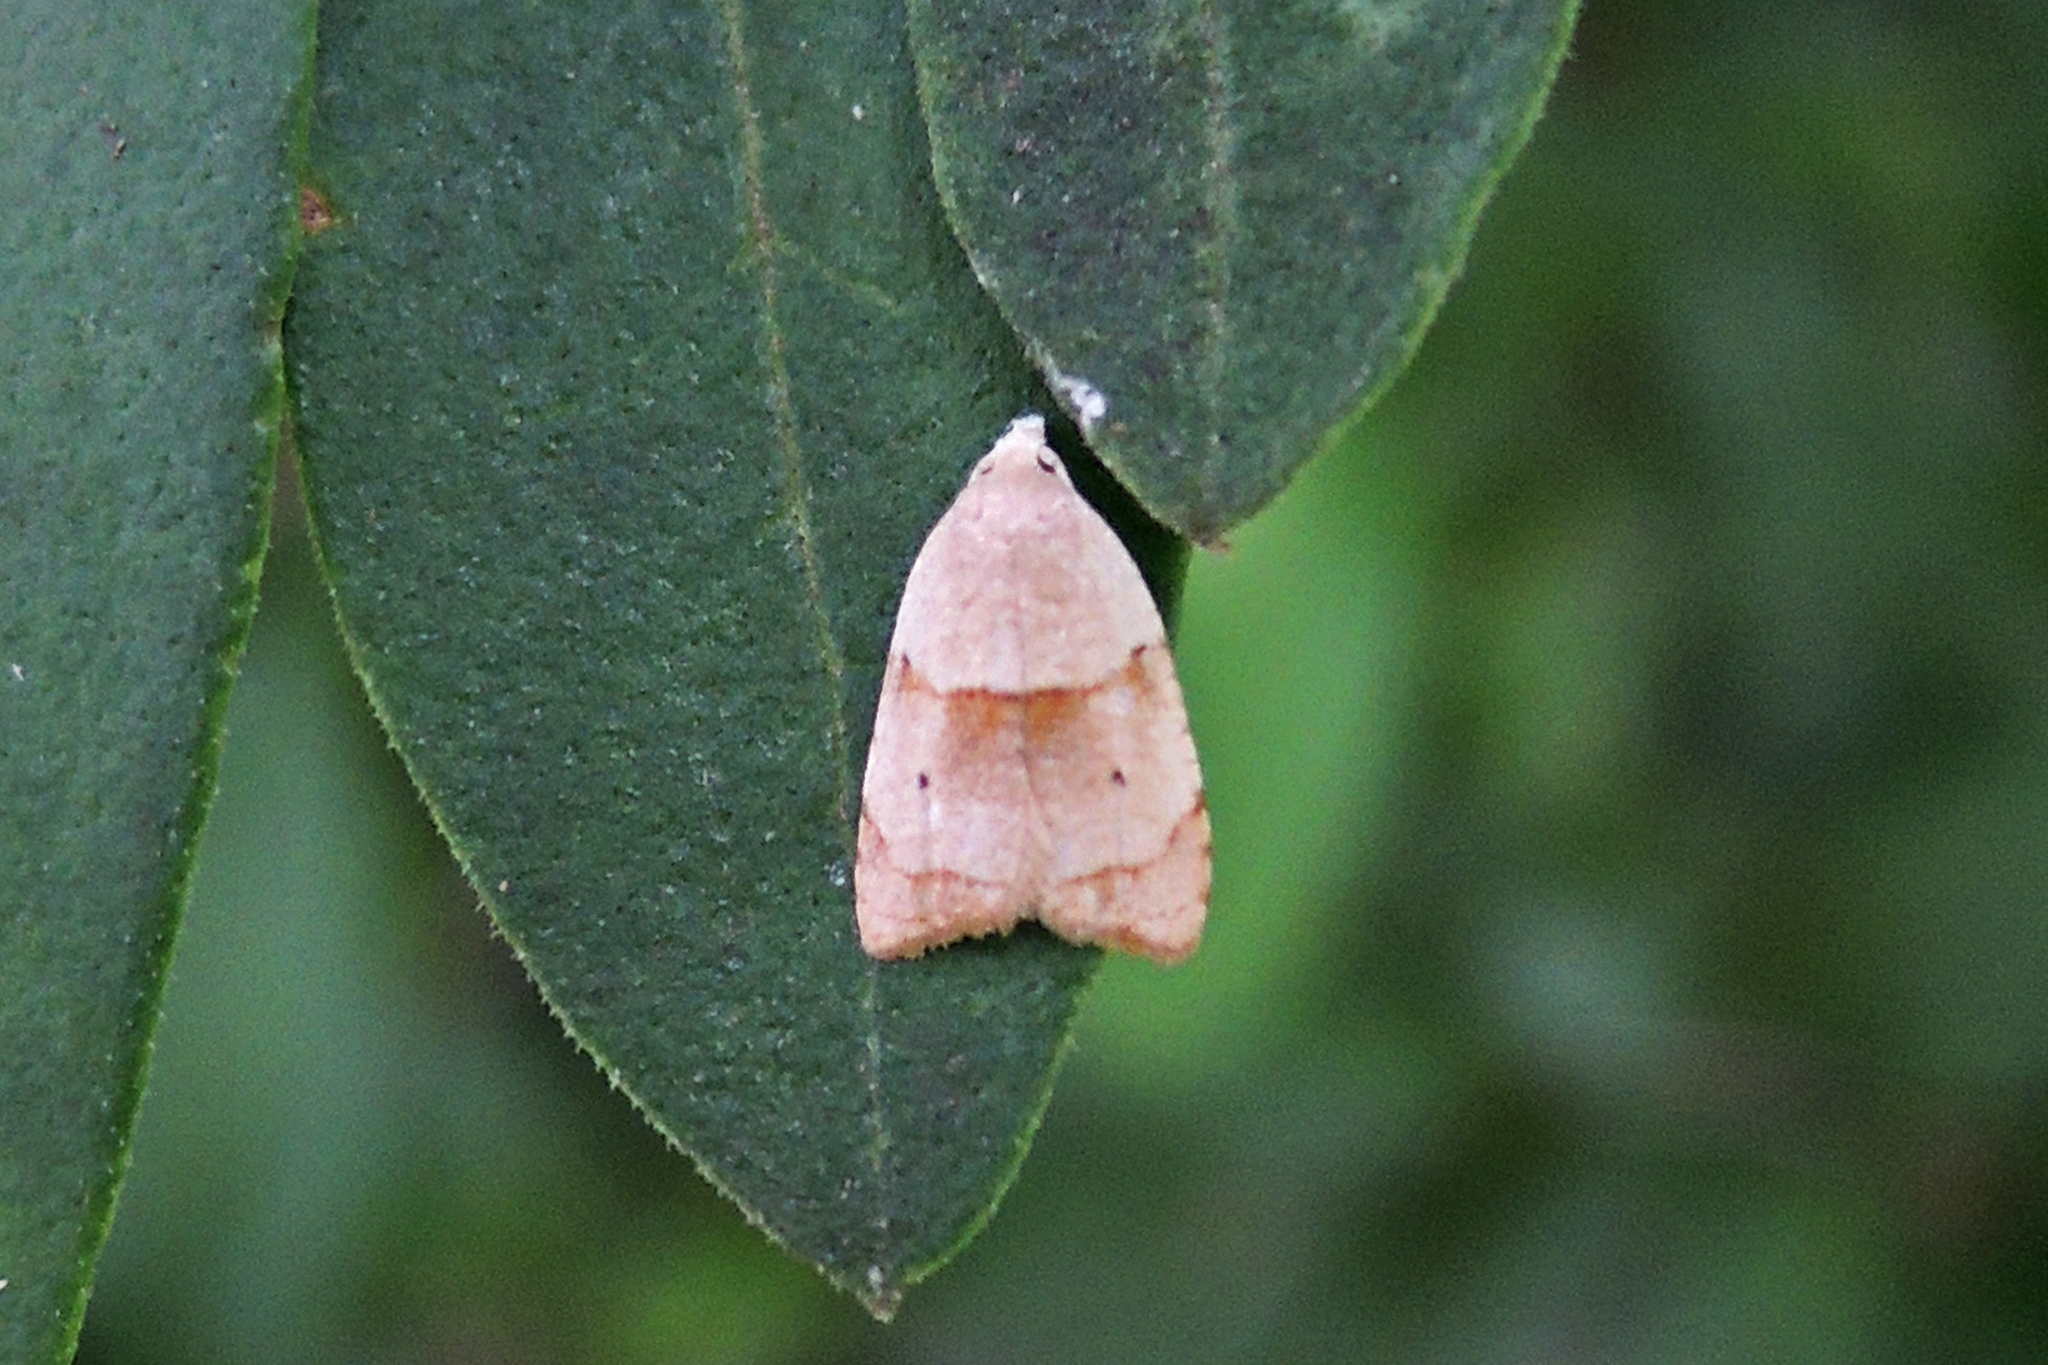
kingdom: Animalia
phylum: Arthropoda
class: Insecta
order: Lepidoptera
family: Tortricidae
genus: Coelostathma
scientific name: Coelostathma discopunctana
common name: Batman moth
